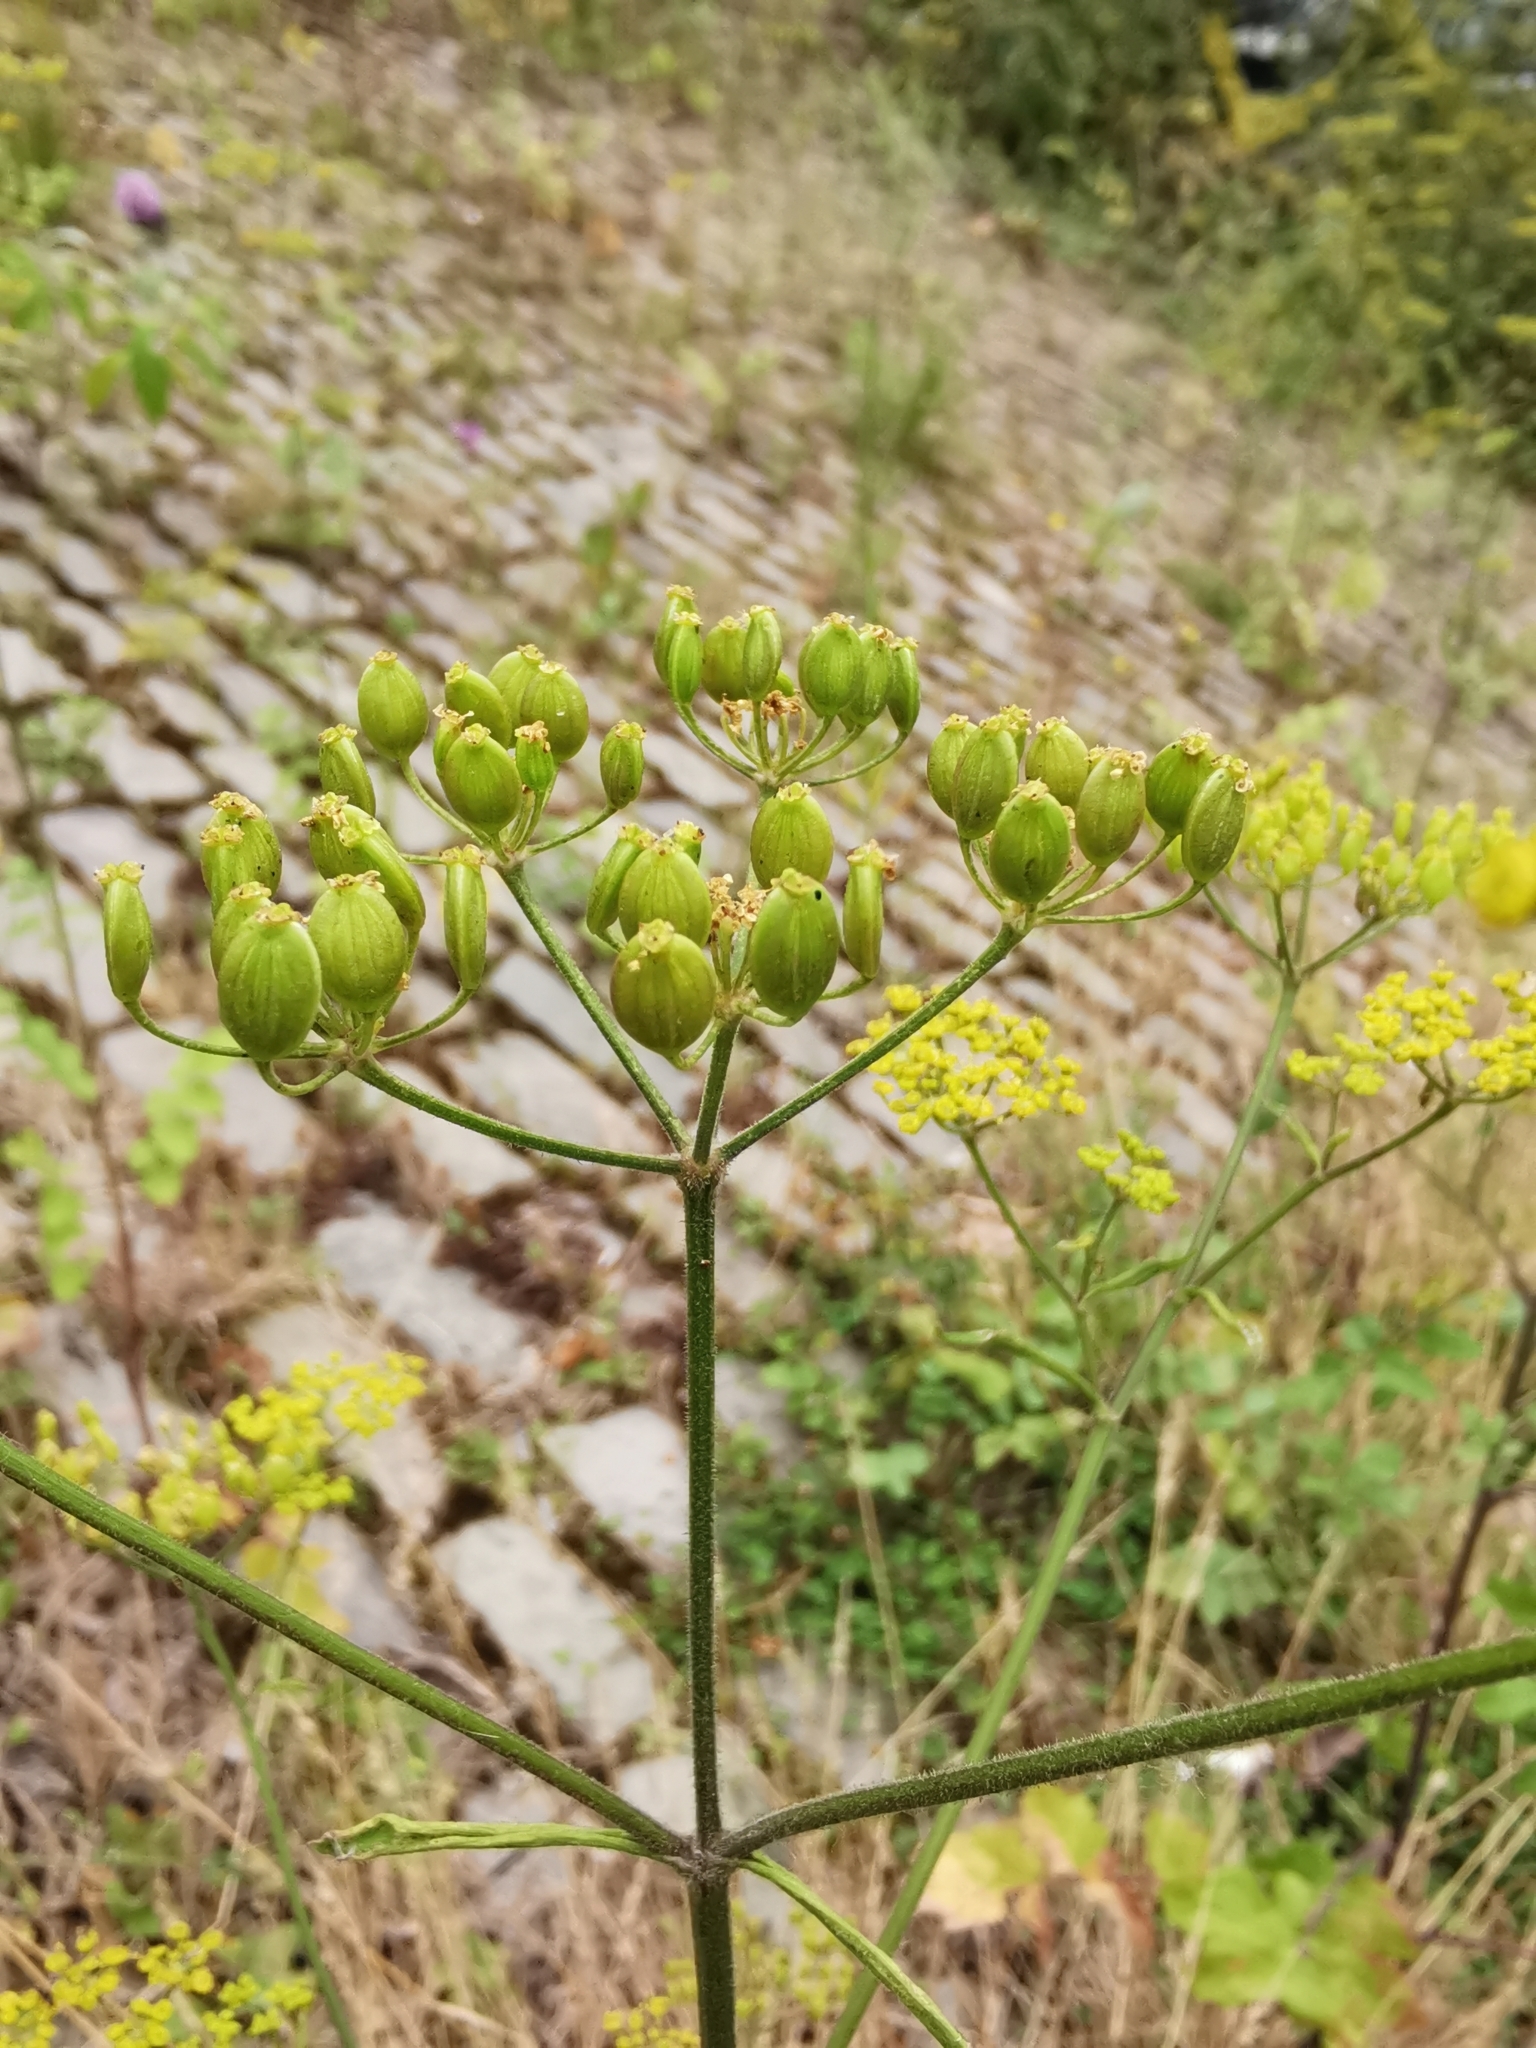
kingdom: Plantae
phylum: Tracheophyta
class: Magnoliopsida
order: Apiales
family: Apiaceae
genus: Pastinaca
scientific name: Pastinaca sativa
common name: Wild parsnip
